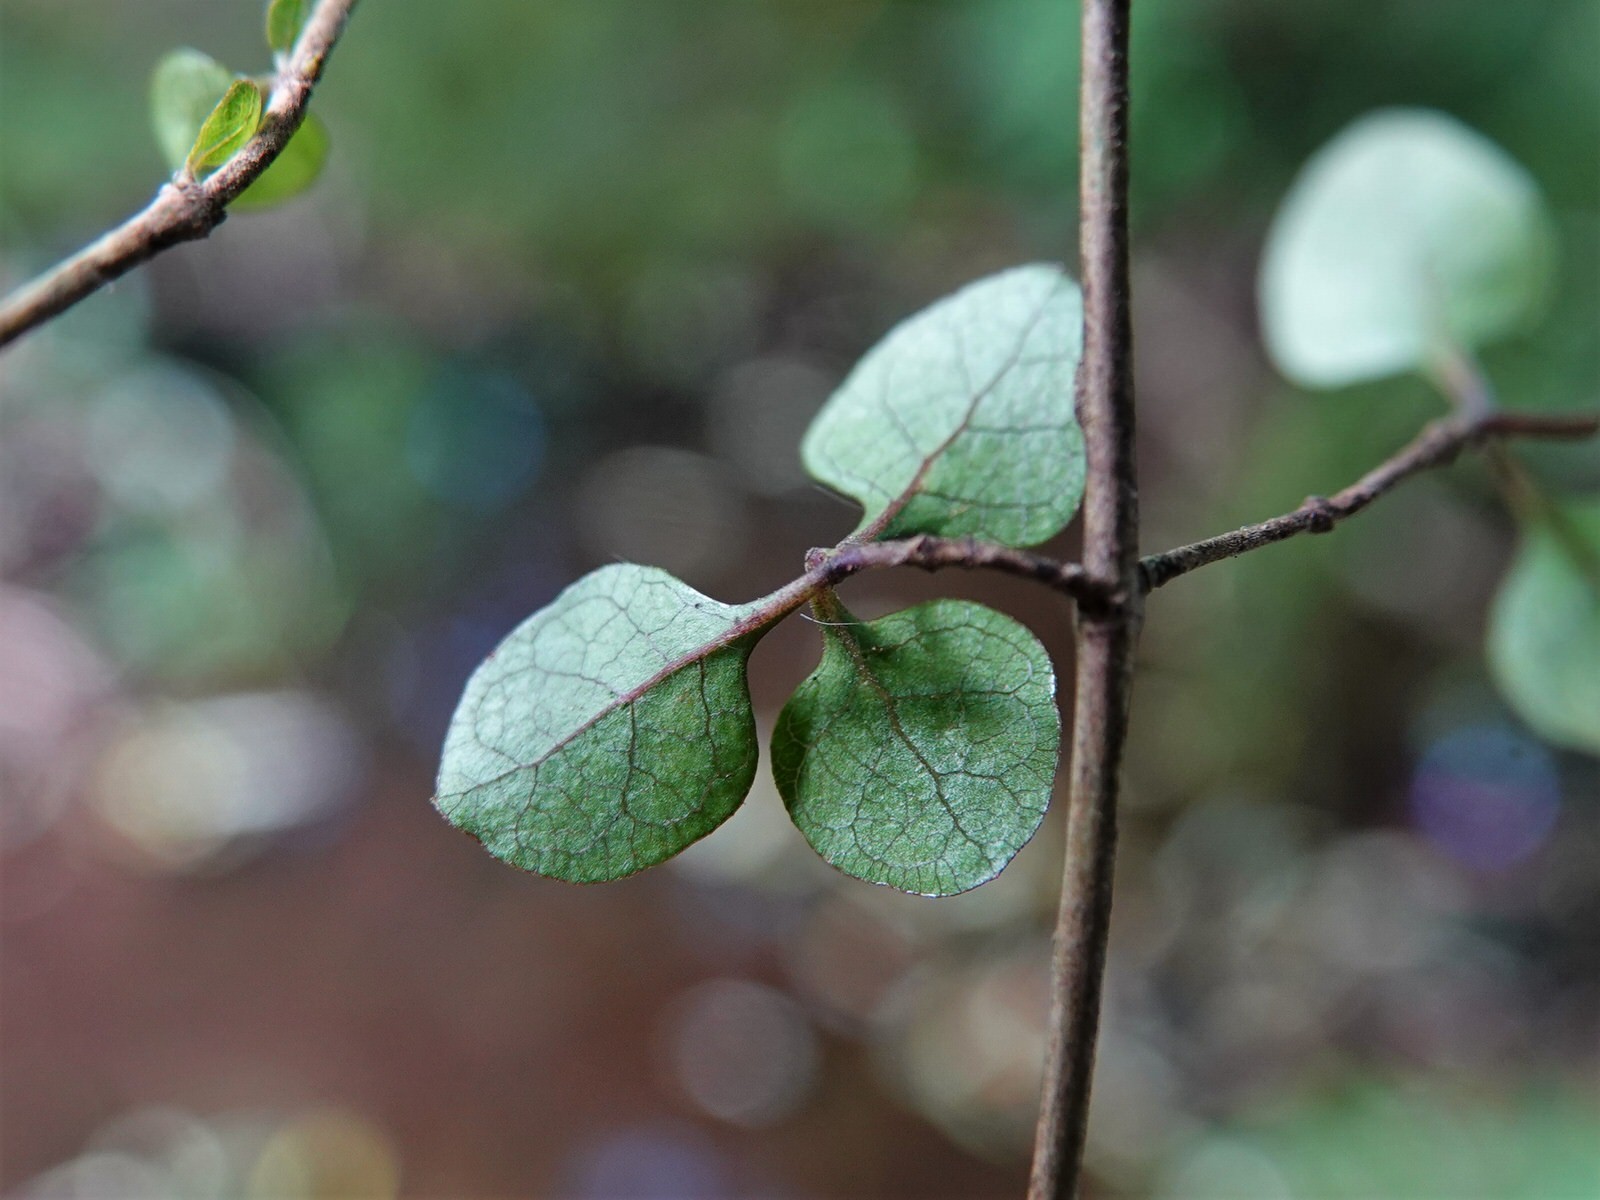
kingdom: Plantae
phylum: Tracheophyta
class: Magnoliopsida
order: Gentianales
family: Rubiaceae
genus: Coprosma
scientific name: Coprosma tenuicaulis
